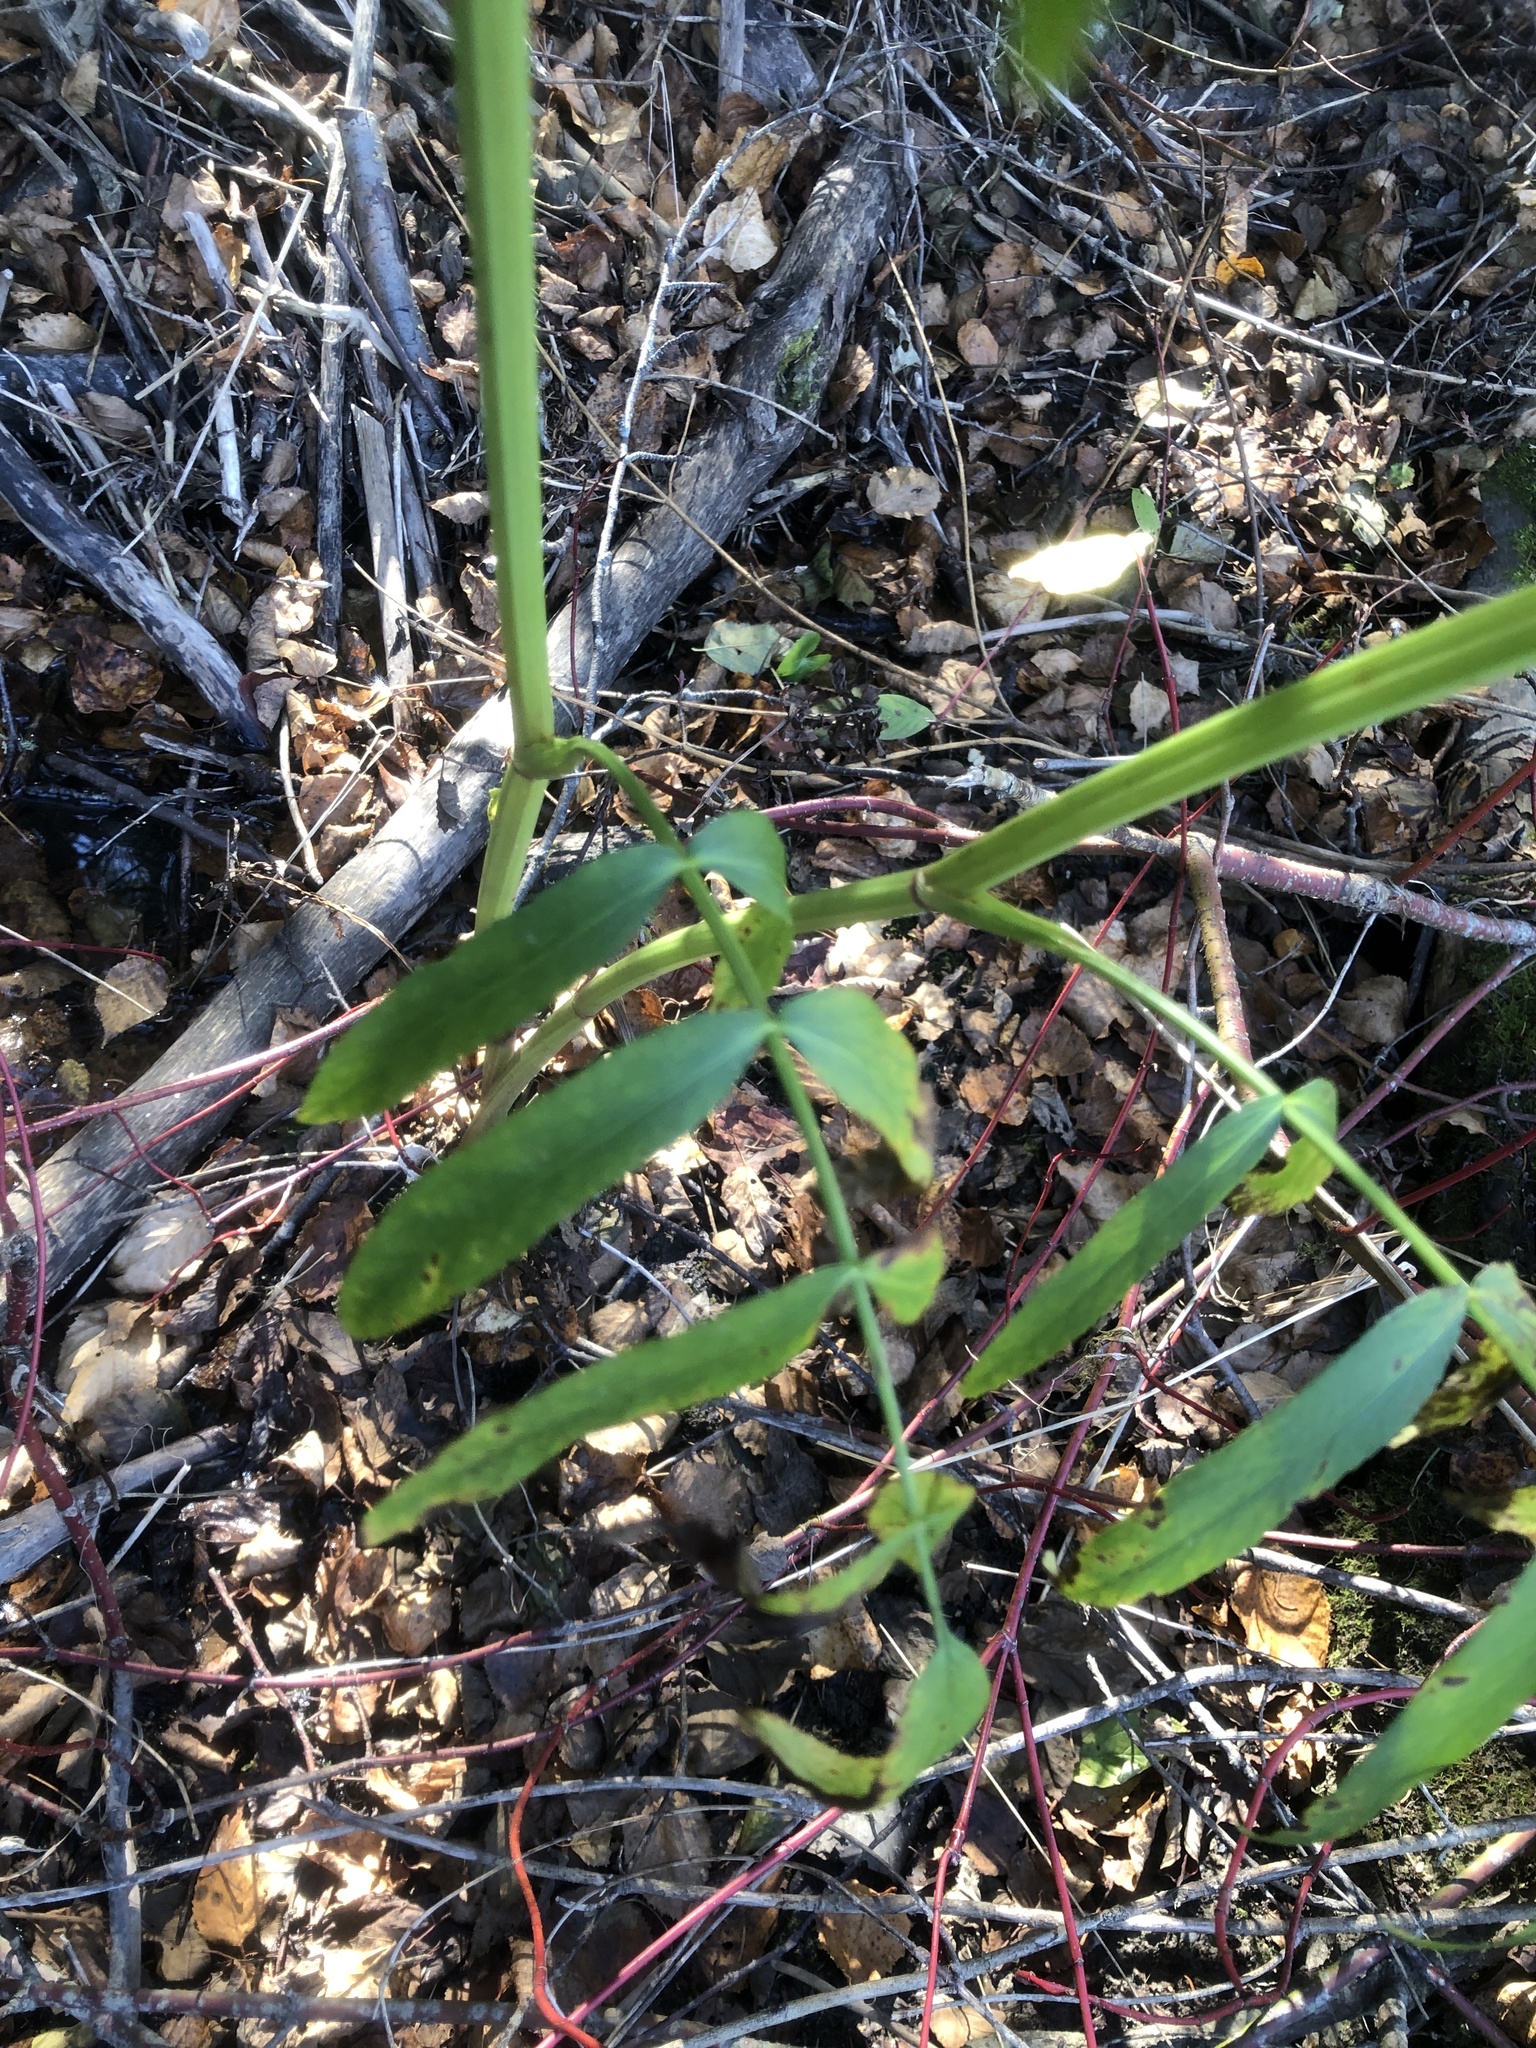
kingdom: Plantae
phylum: Tracheophyta
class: Magnoliopsida
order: Apiales
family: Apiaceae
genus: Sium
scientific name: Sium suave
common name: Hemlock water-parsnip
